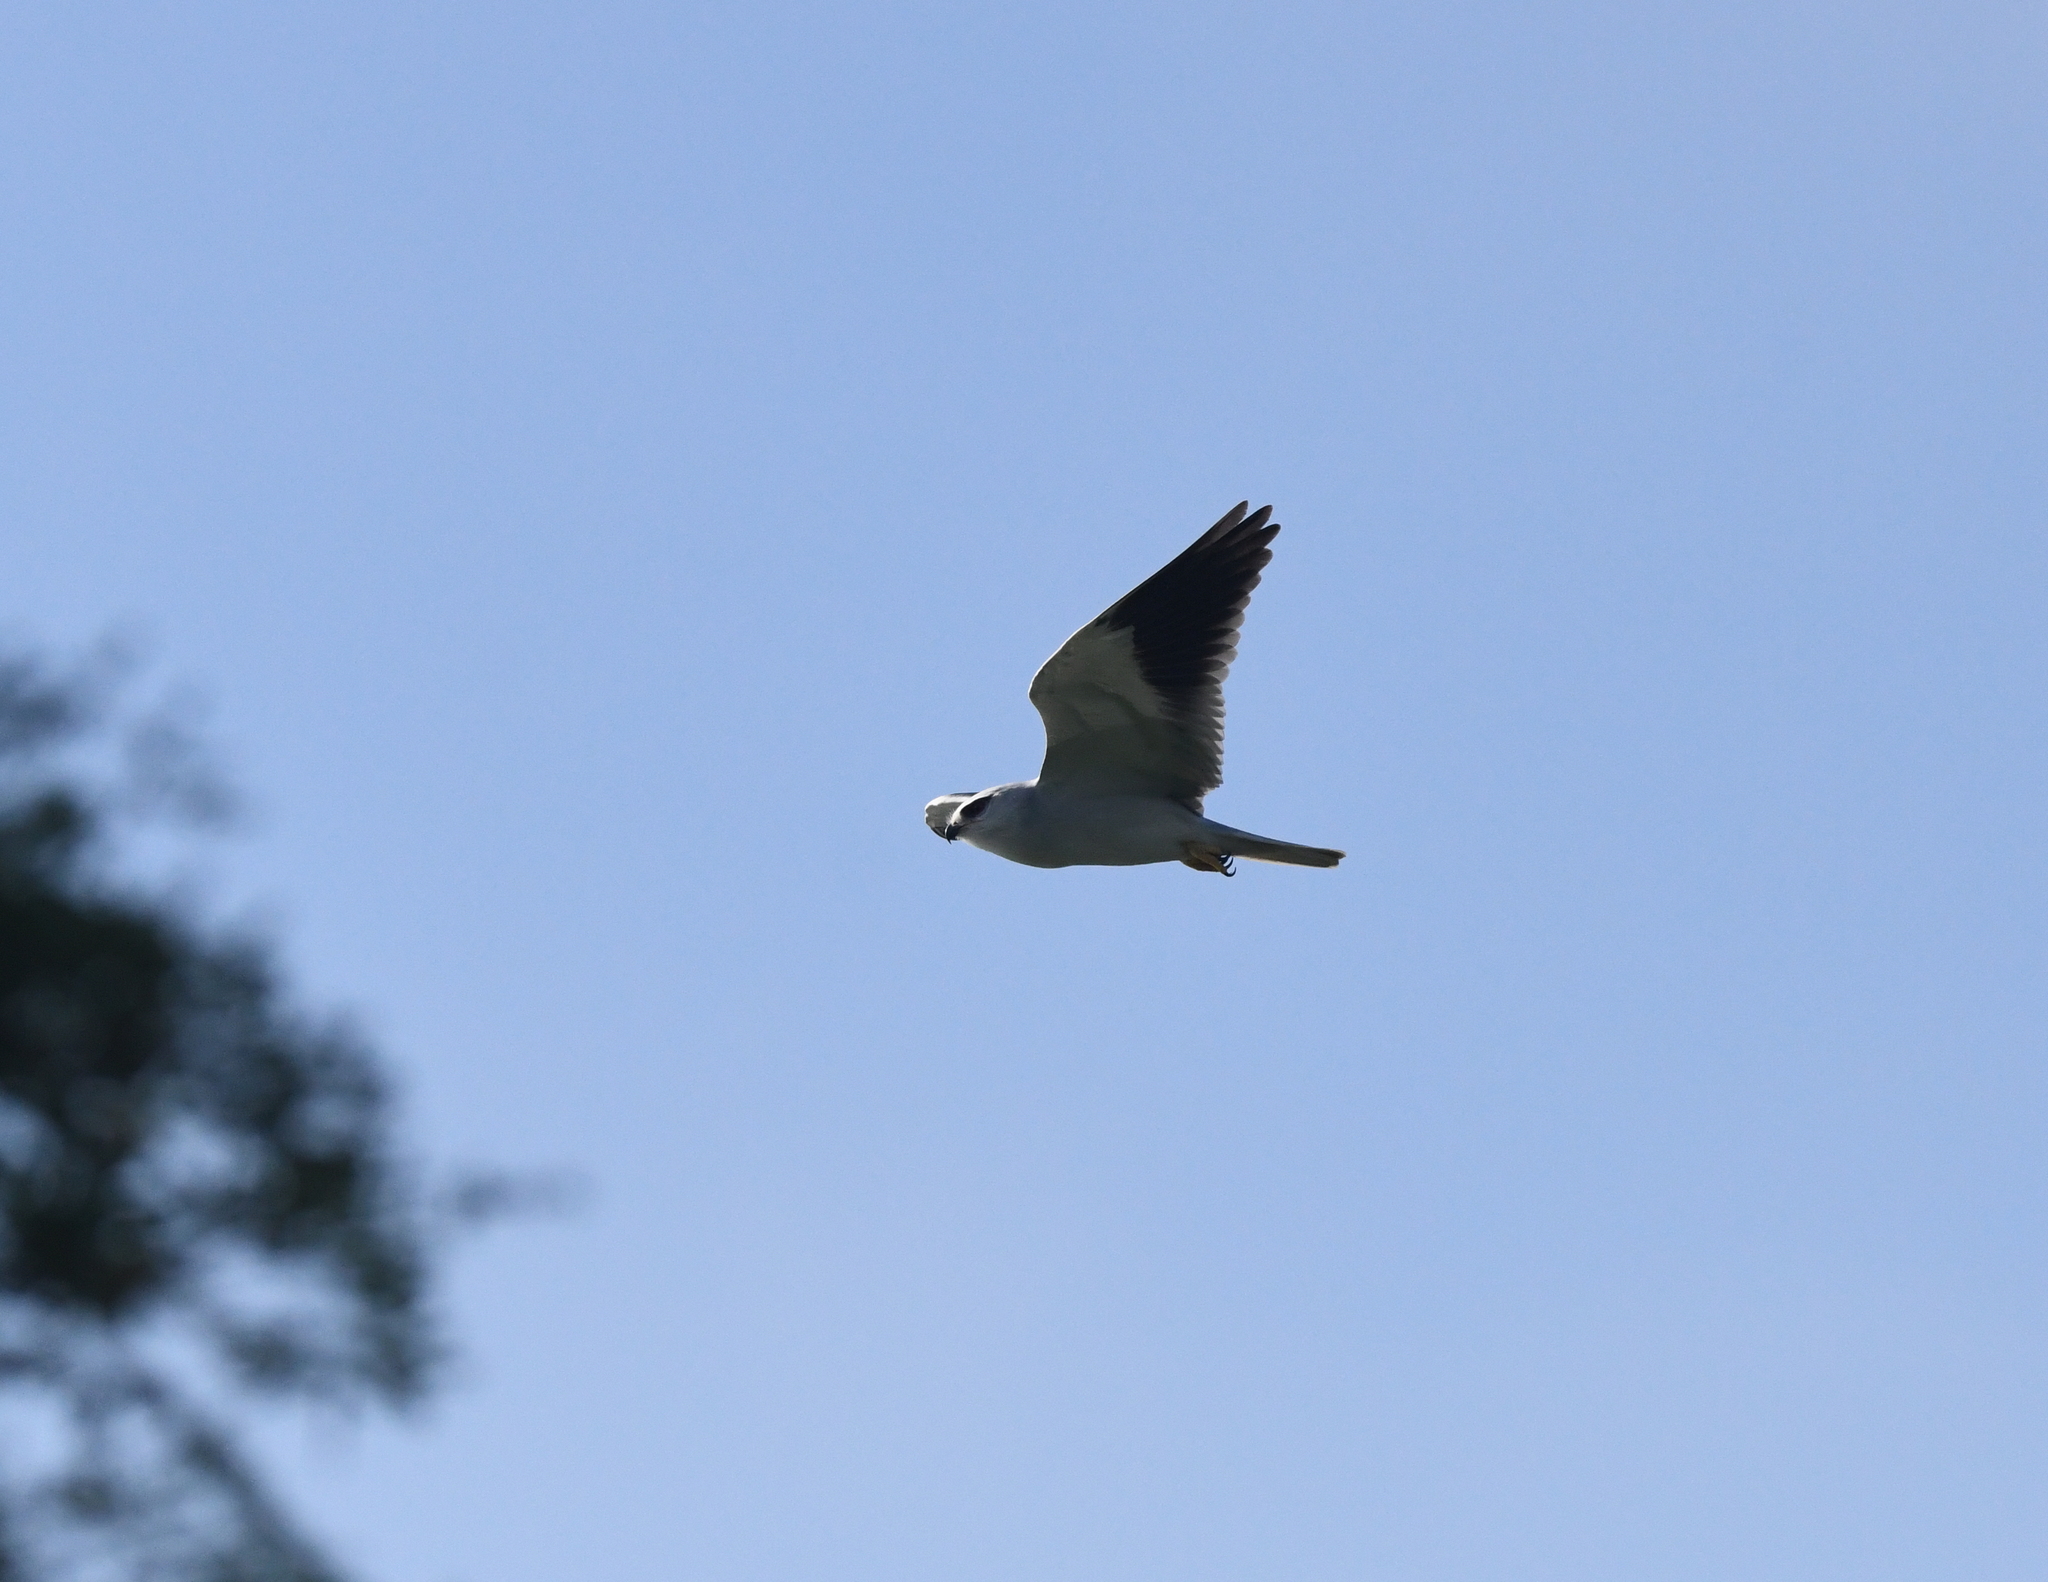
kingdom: Animalia
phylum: Chordata
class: Aves
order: Accipitriformes
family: Accipitridae
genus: Elanus
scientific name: Elanus caeruleus
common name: Black-winged kite
